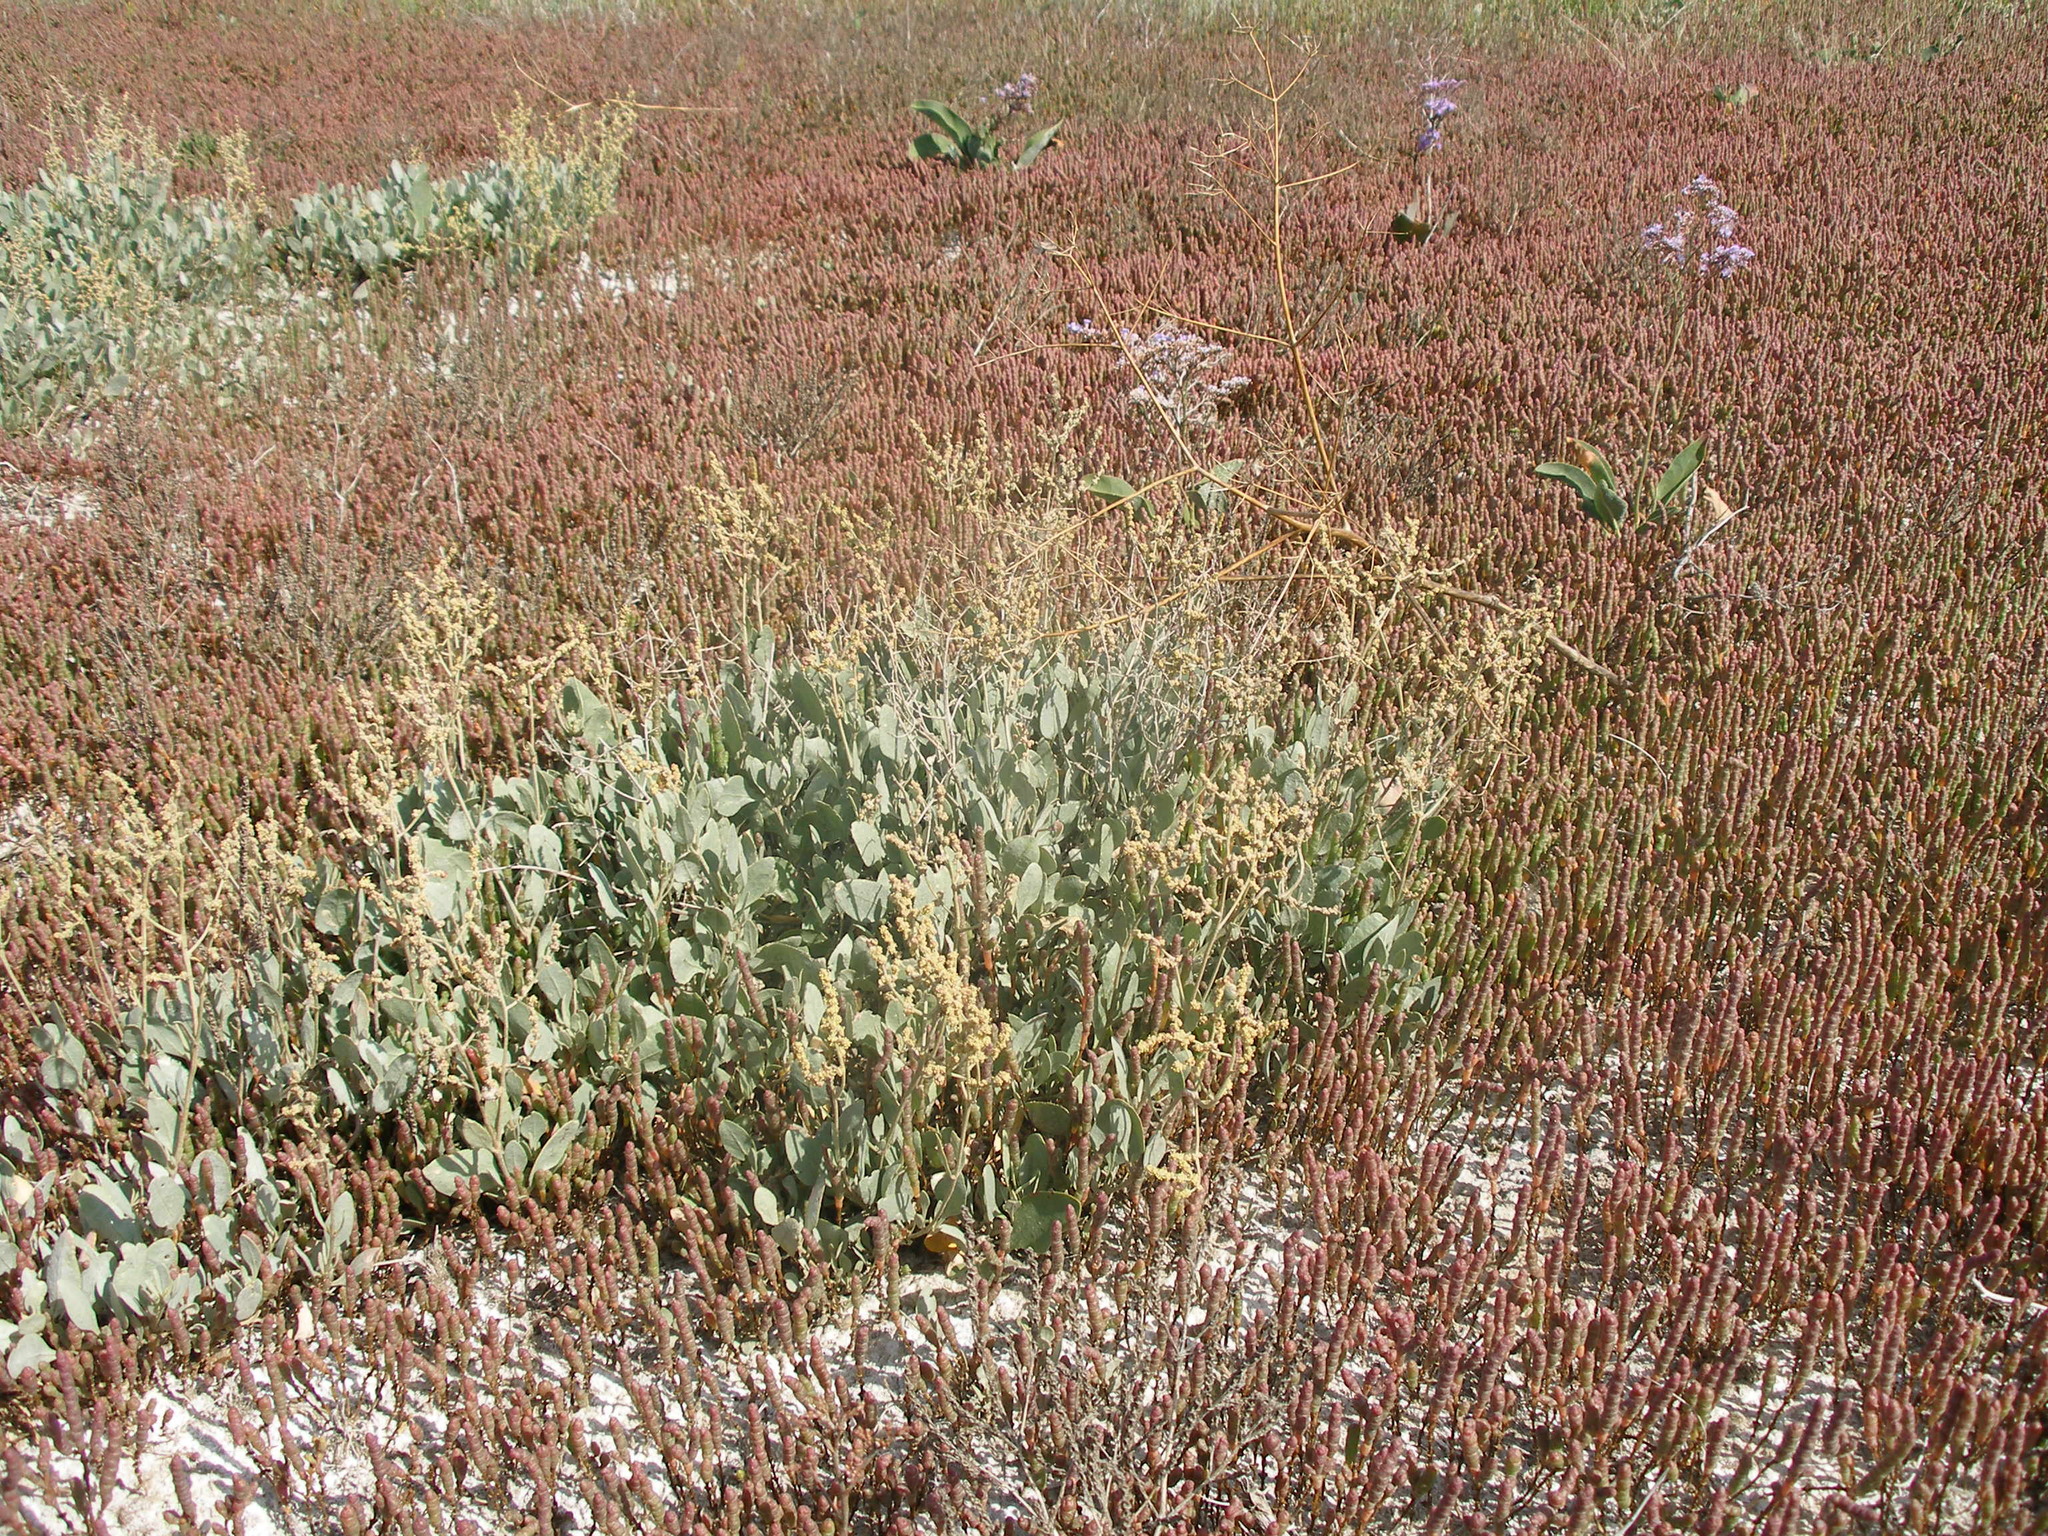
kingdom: Plantae
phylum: Tracheophyta
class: Magnoliopsida
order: Caryophyllales
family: Amaranthaceae
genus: Halimione
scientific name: Halimione verrucifera
